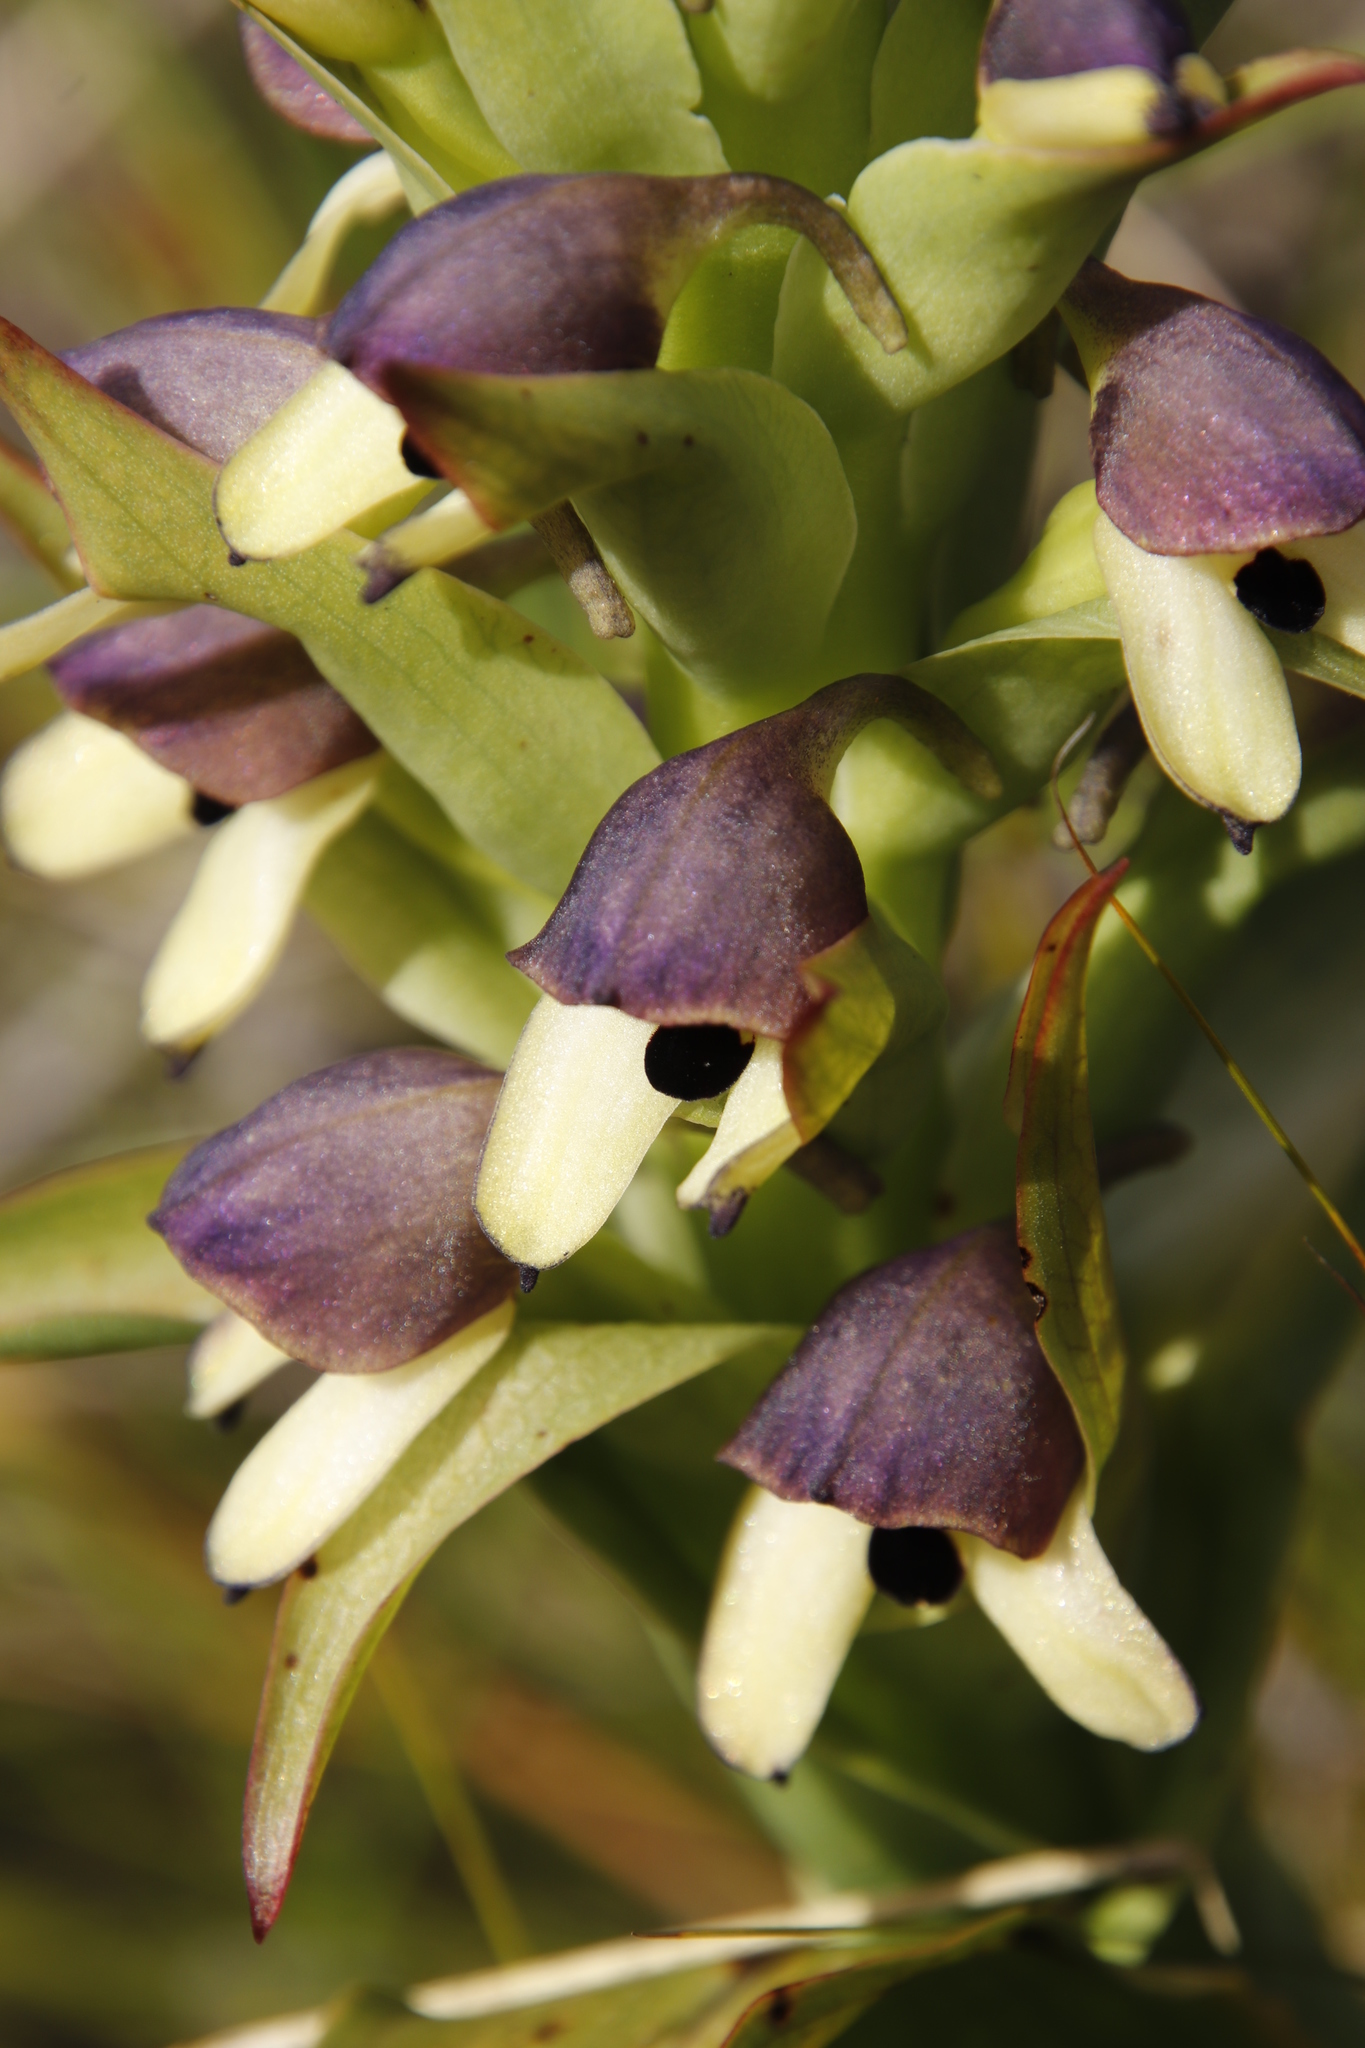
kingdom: Plantae
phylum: Tracheophyta
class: Liliopsida
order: Asparagales
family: Orchidaceae
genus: Disa
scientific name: Disa cornuta
